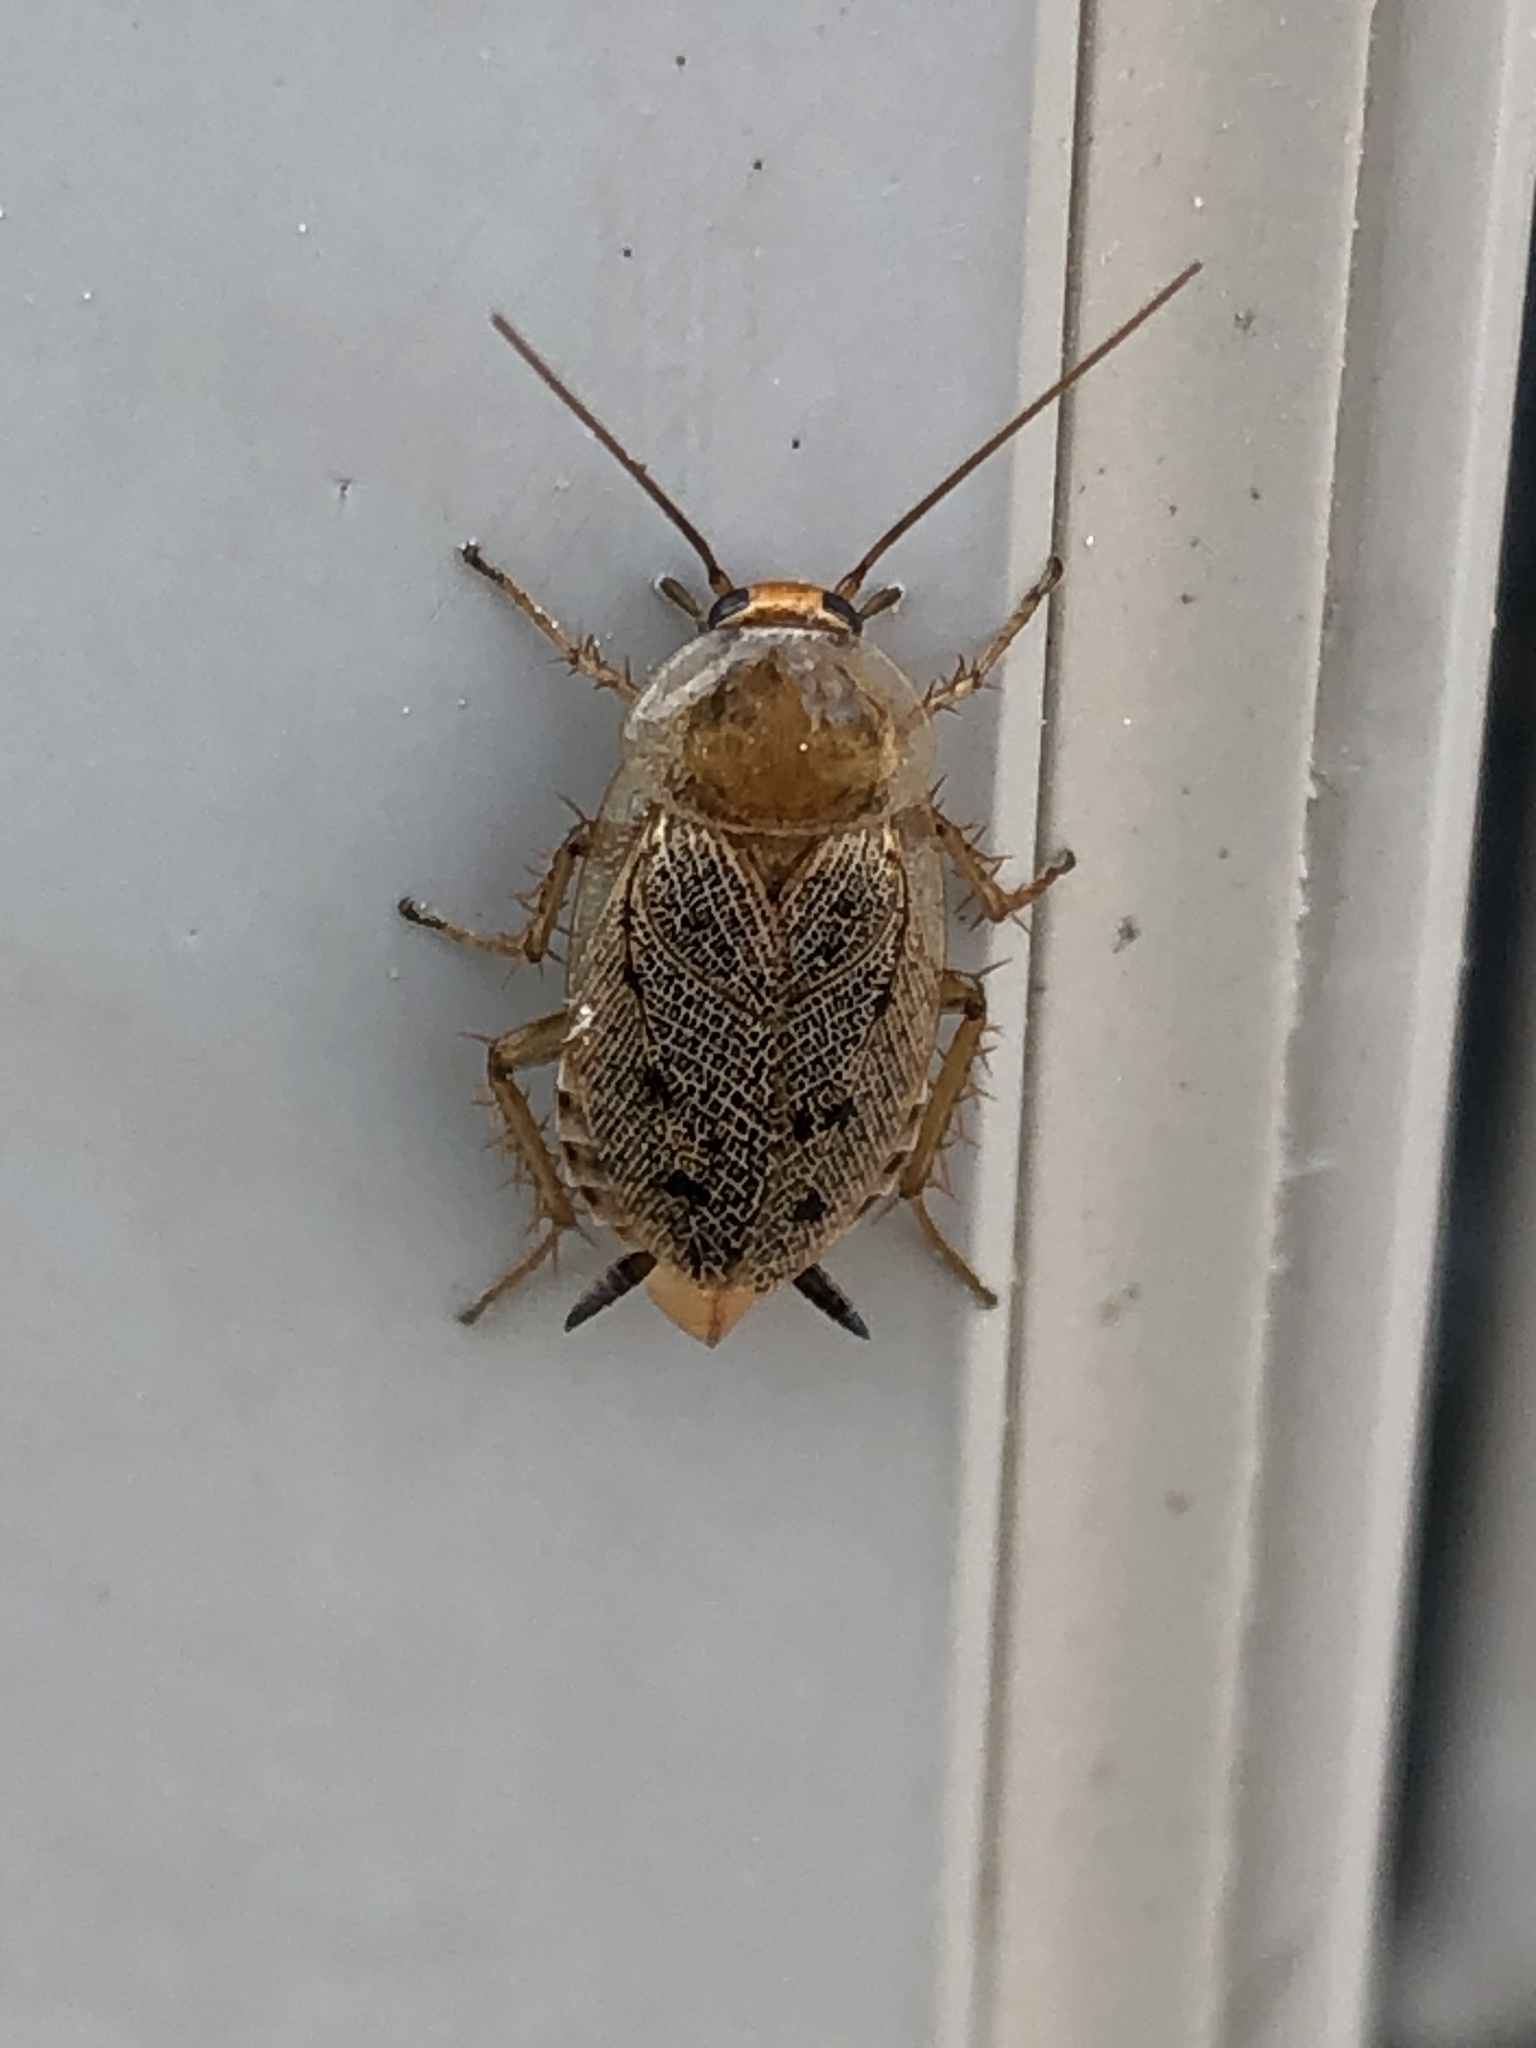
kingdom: Animalia
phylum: Arthropoda
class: Insecta
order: Blattodea
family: Ectobiidae
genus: Ectobius
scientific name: Ectobius lapponicus
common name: Dusky cockroach
